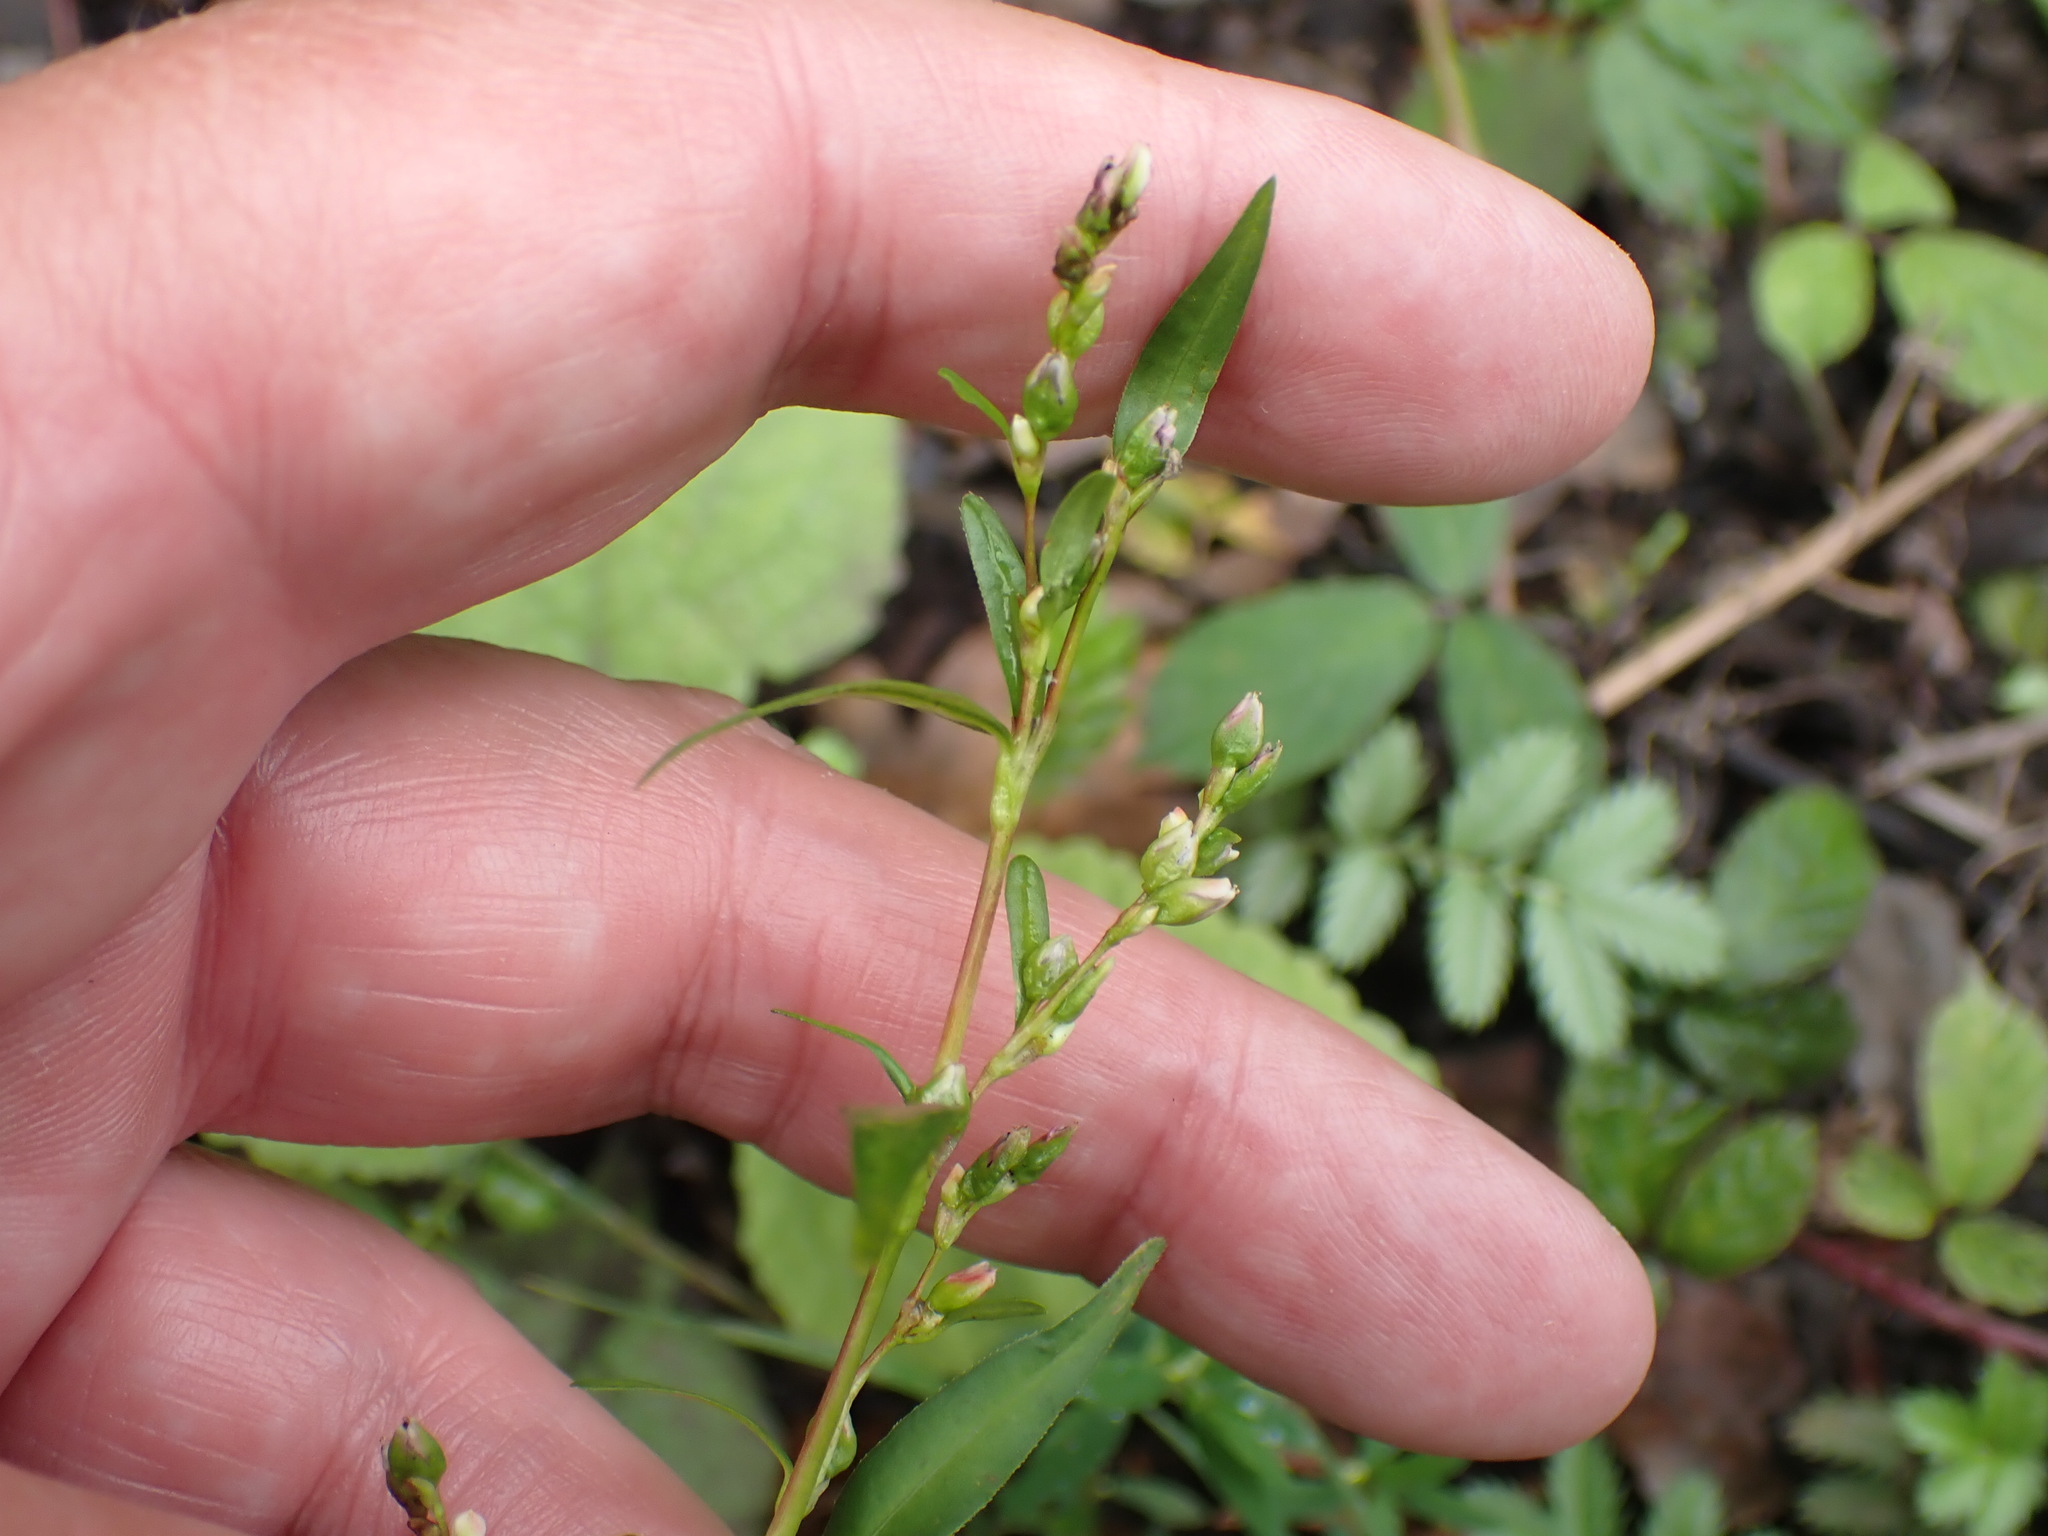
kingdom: Plantae
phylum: Tracheophyta
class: Magnoliopsida
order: Caryophyllales
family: Polygonaceae
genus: Persicaria
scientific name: Persicaria minor
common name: Small water-pepper
